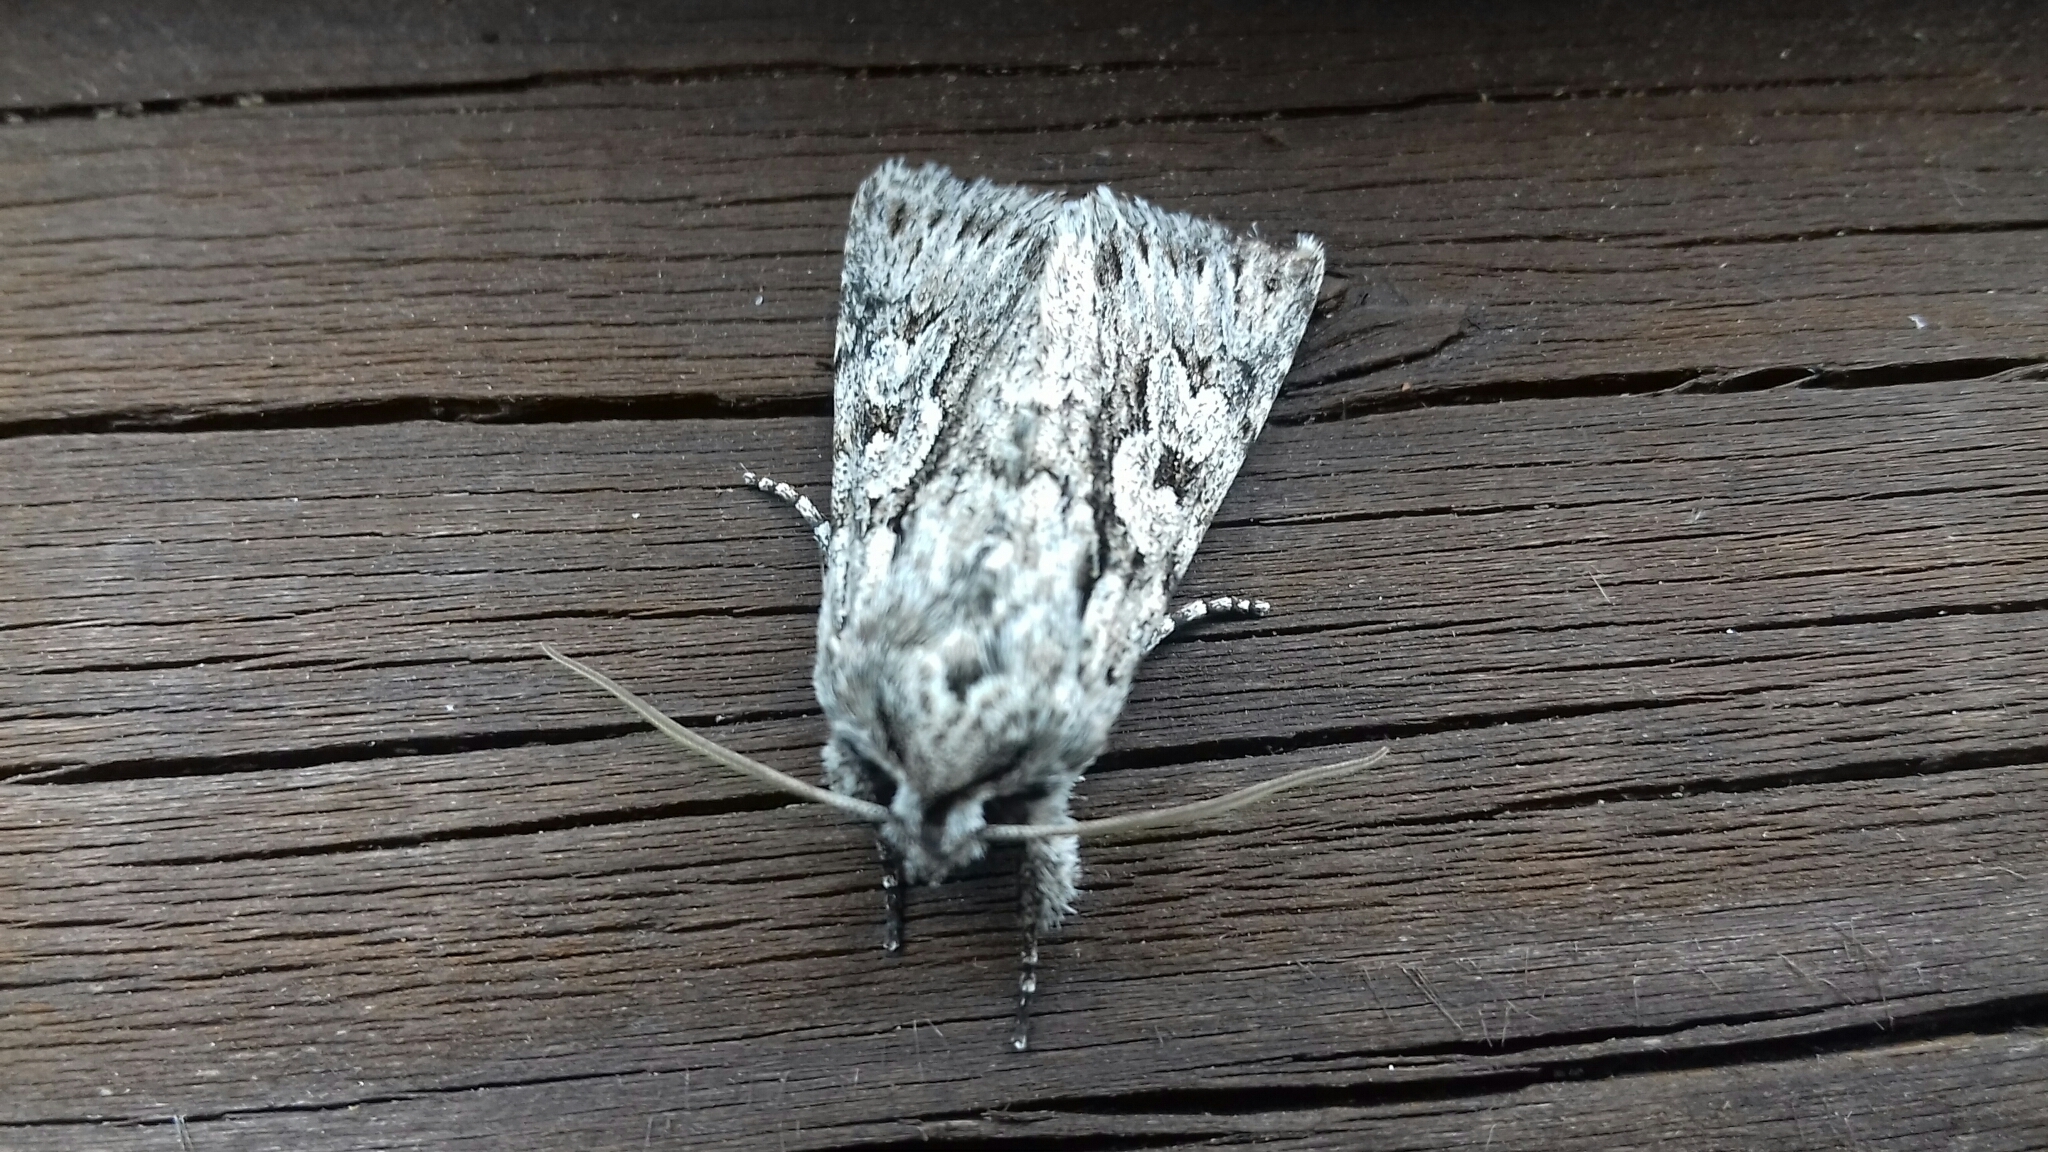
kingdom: Animalia
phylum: Arthropoda
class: Insecta
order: Lepidoptera
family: Noctuidae
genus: Xylocampa
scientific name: Xylocampa areola
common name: Early grey
